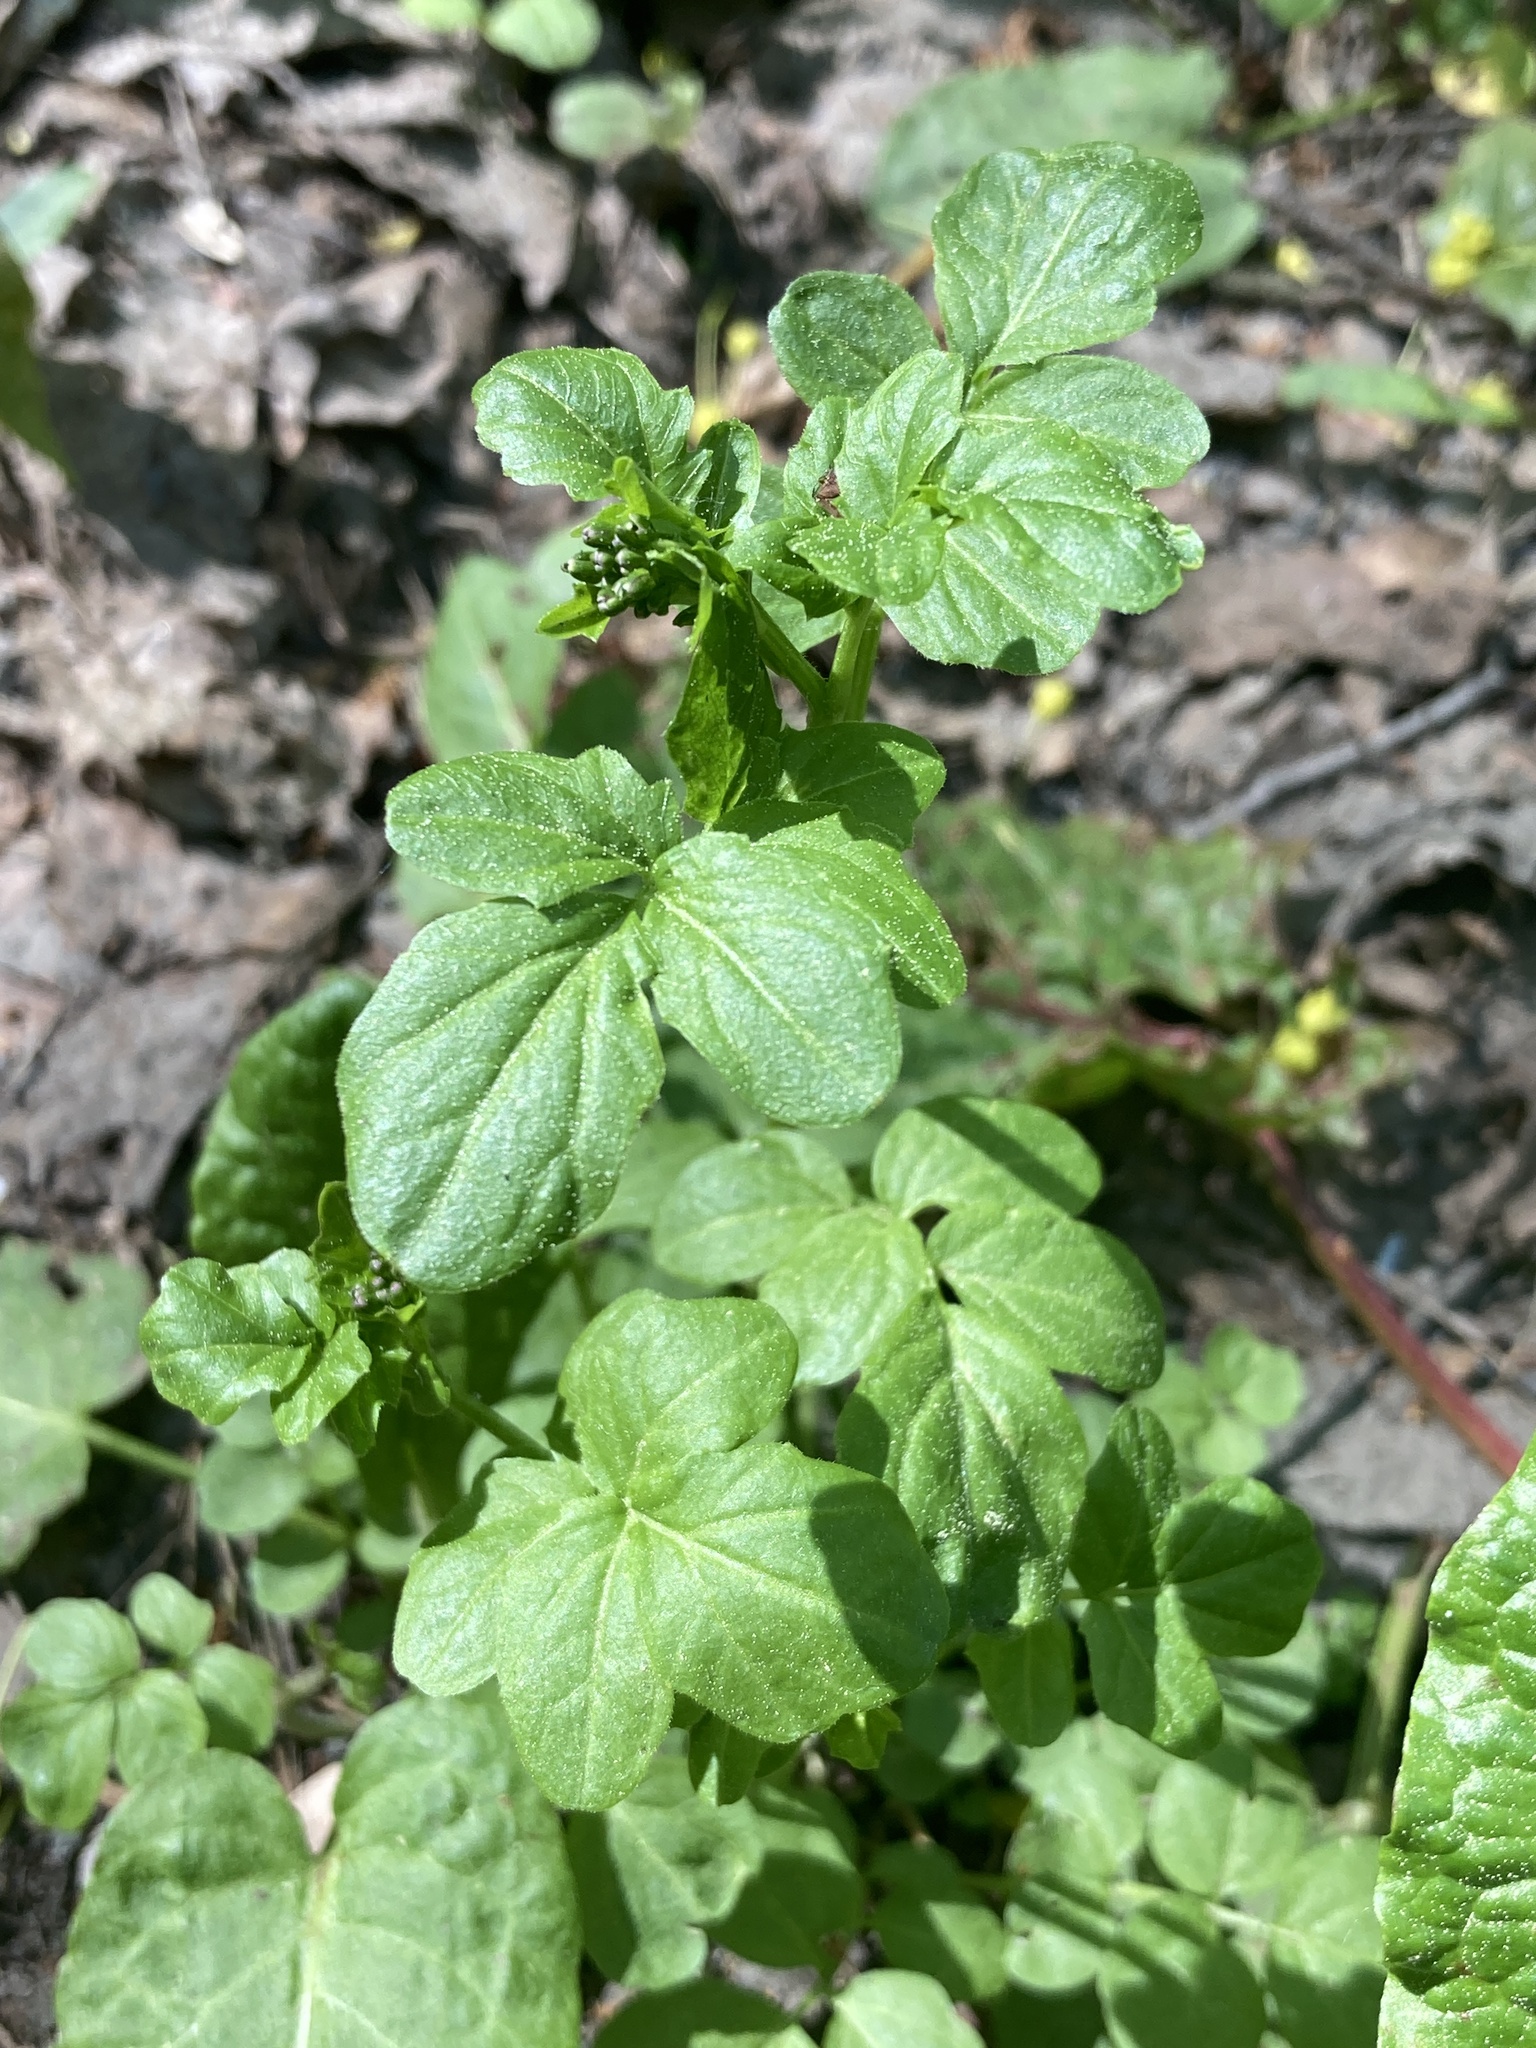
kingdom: Plantae
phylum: Tracheophyta
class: Magnoliopsida
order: Brassicales
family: Brassicaceae
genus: Cardamine
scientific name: Cardamine amara
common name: Large bitter-cress
